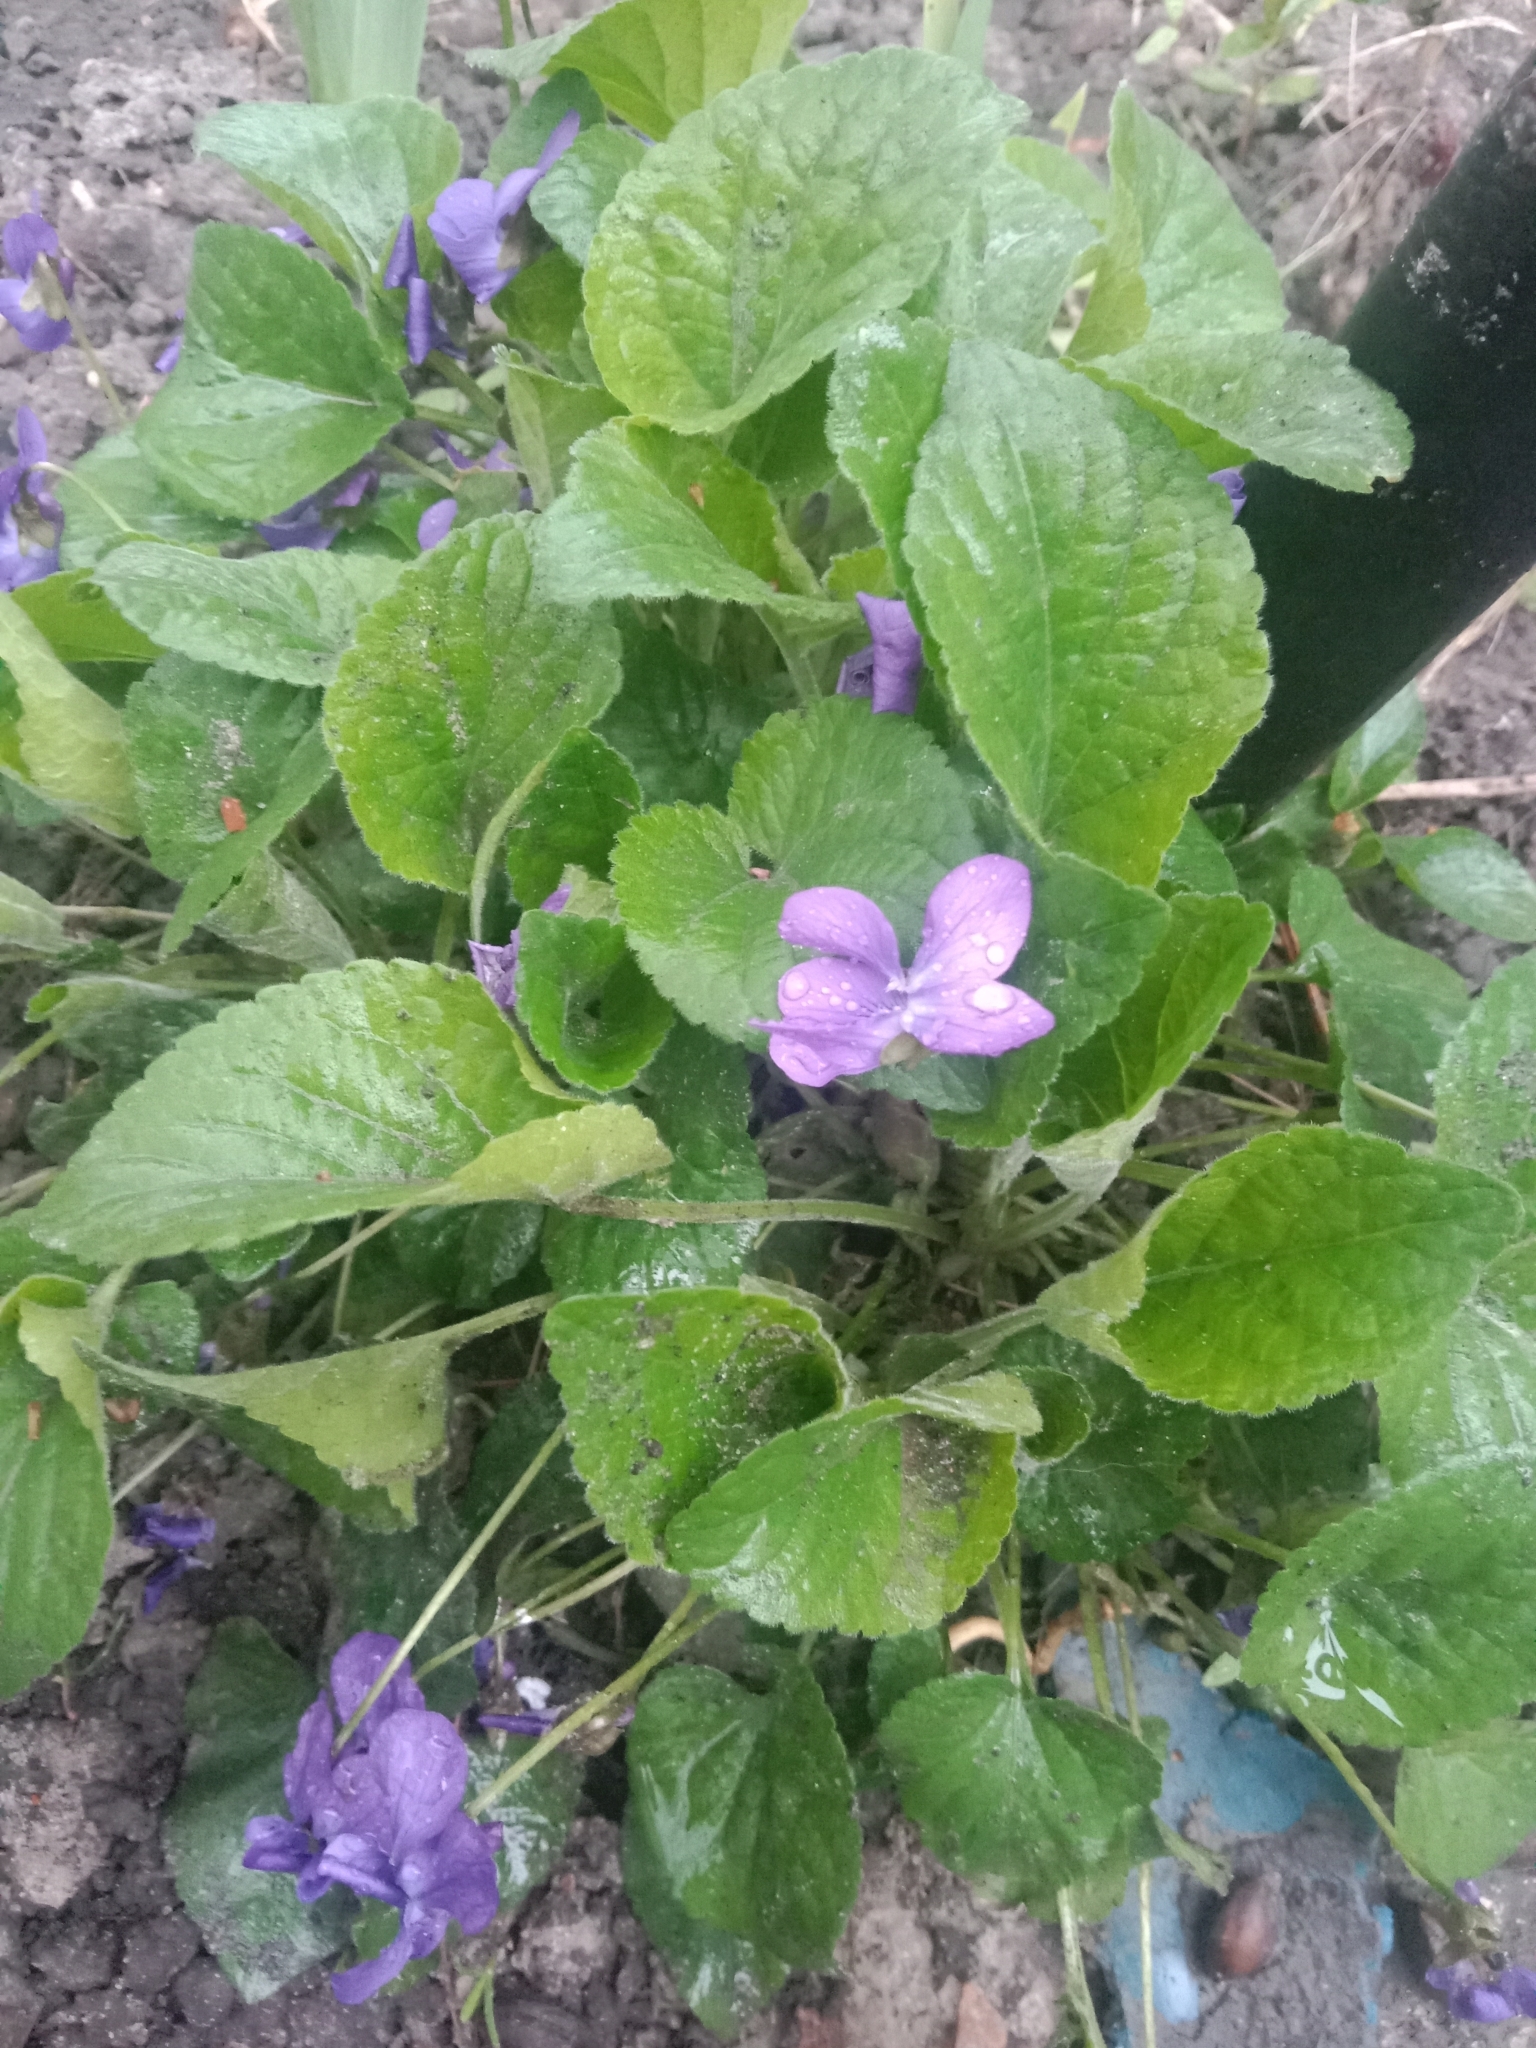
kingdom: Plantae
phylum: Tracheophyta
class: Magnoliopsida
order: Malpighiales
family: Violaceae
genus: Viola
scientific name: Viola odorata
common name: Sweet violet
